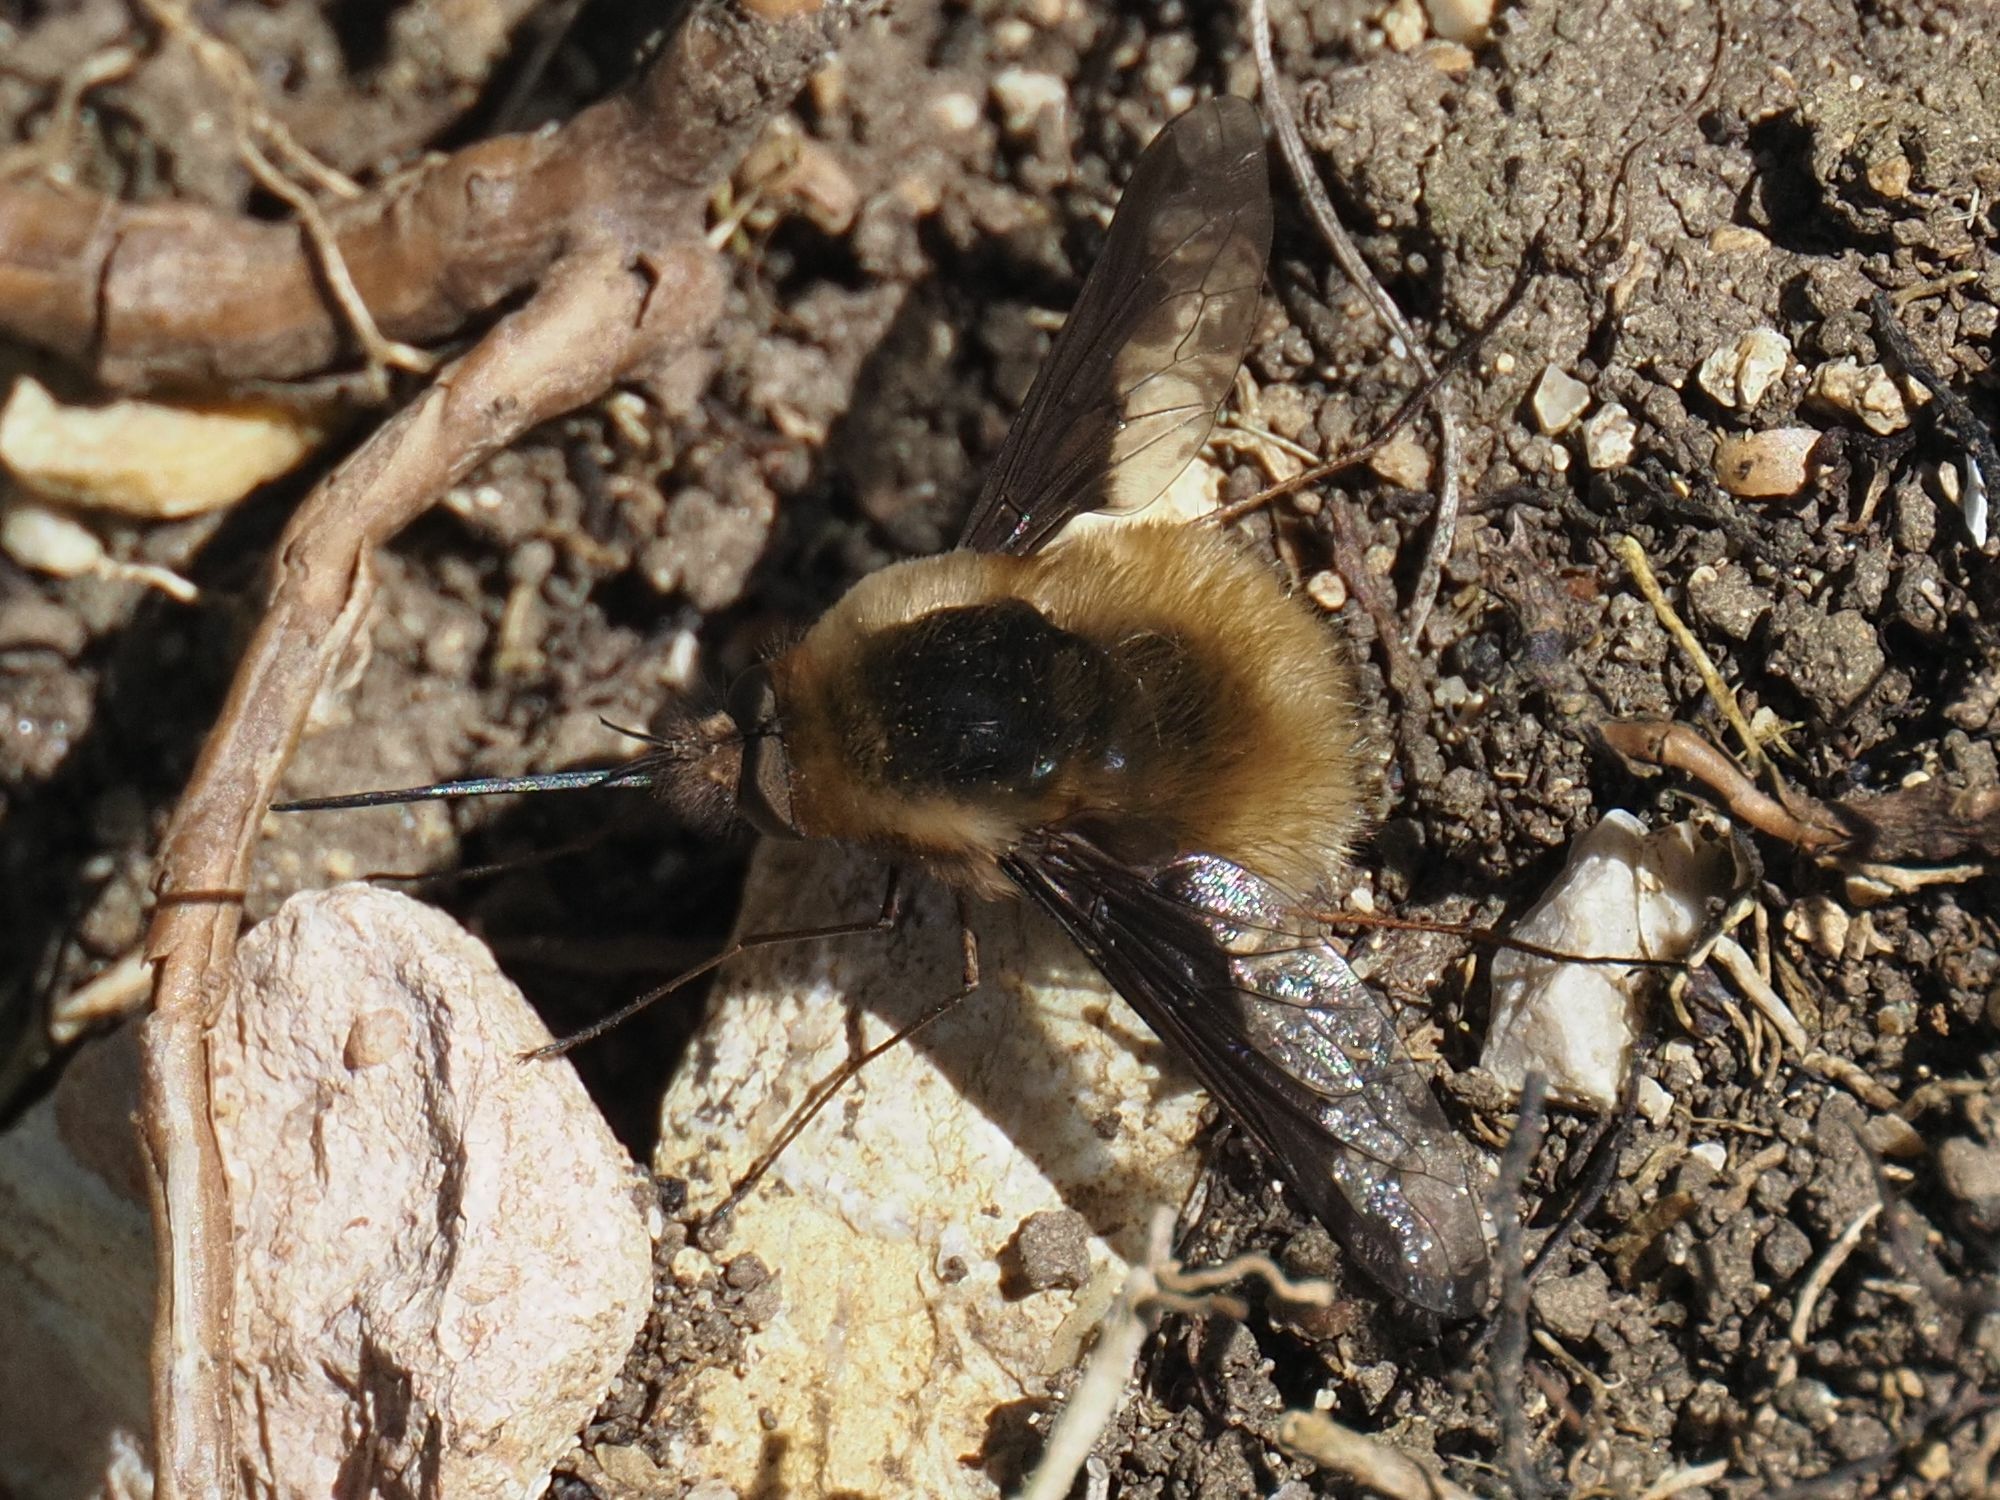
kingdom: Animalia
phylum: Arthropoda
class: Insecta
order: Diptera
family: Bombyliidae
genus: Bombylius
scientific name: Bombylius major
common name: Bee fly
